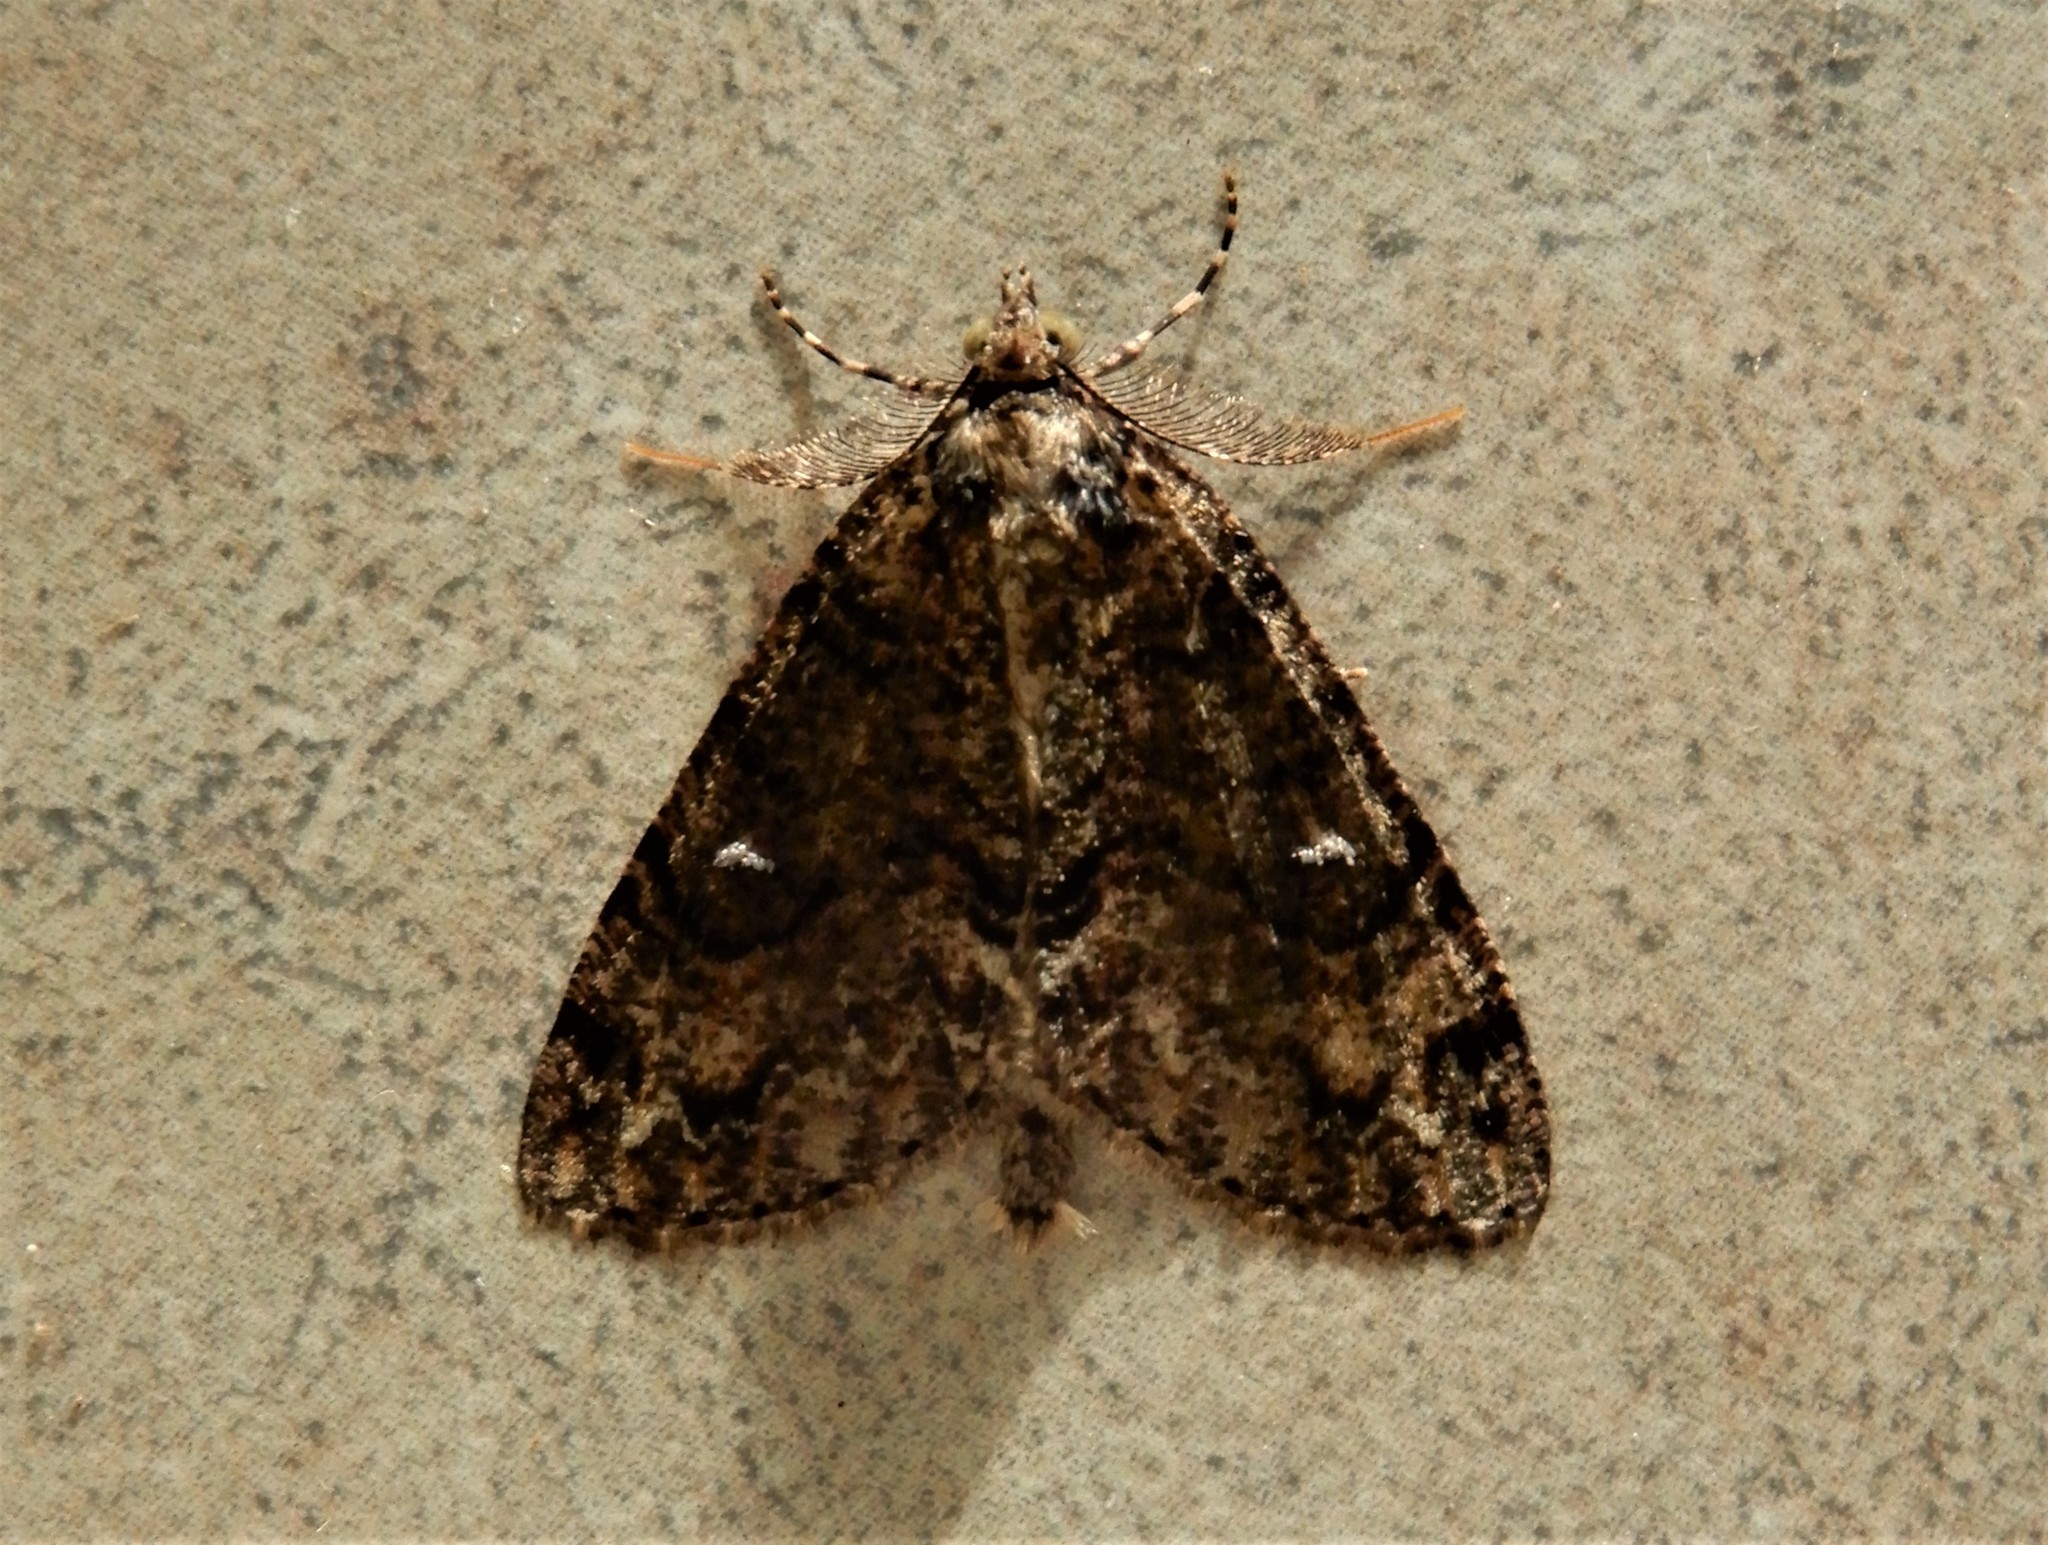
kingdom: Animalia
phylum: Arthropoda
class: Insecta
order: Lepidoptera
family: Geometridae
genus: Pseudocoremia
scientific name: Pseudocoremia suavis
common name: Common forest looper
